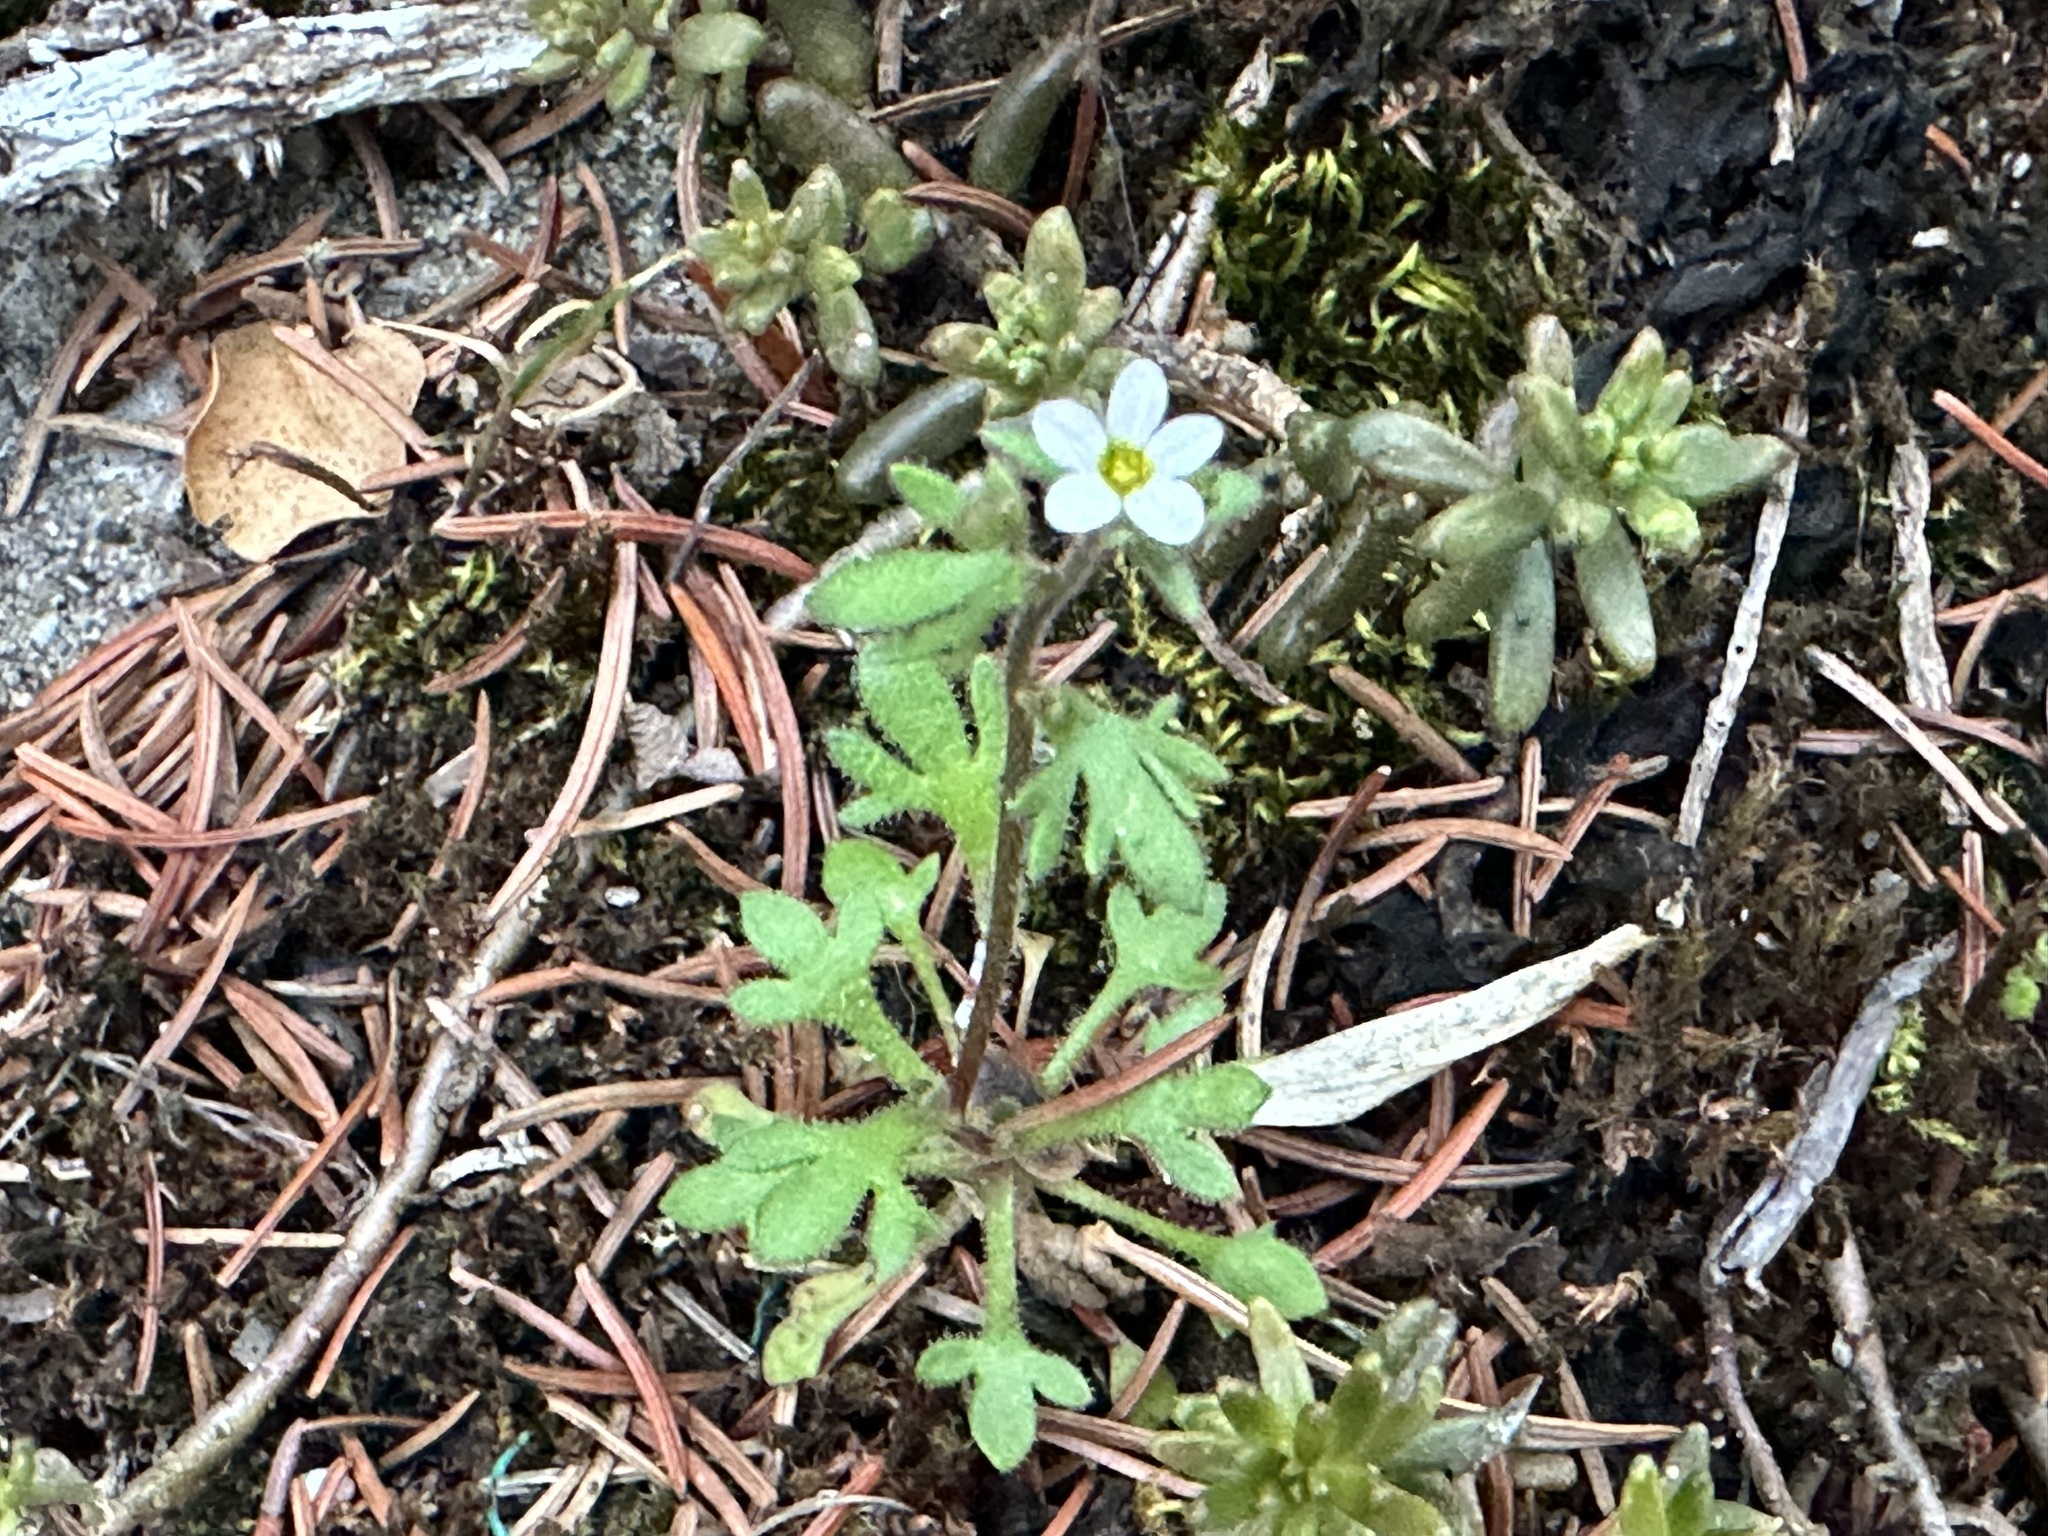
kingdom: Plantae
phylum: Tracheophyta
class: Magnoliopsida
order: Saxifragales
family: Saxifragaceae
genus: Saxifraga
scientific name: Saxifraga tridactylites
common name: Rue-leaved saxifrage
